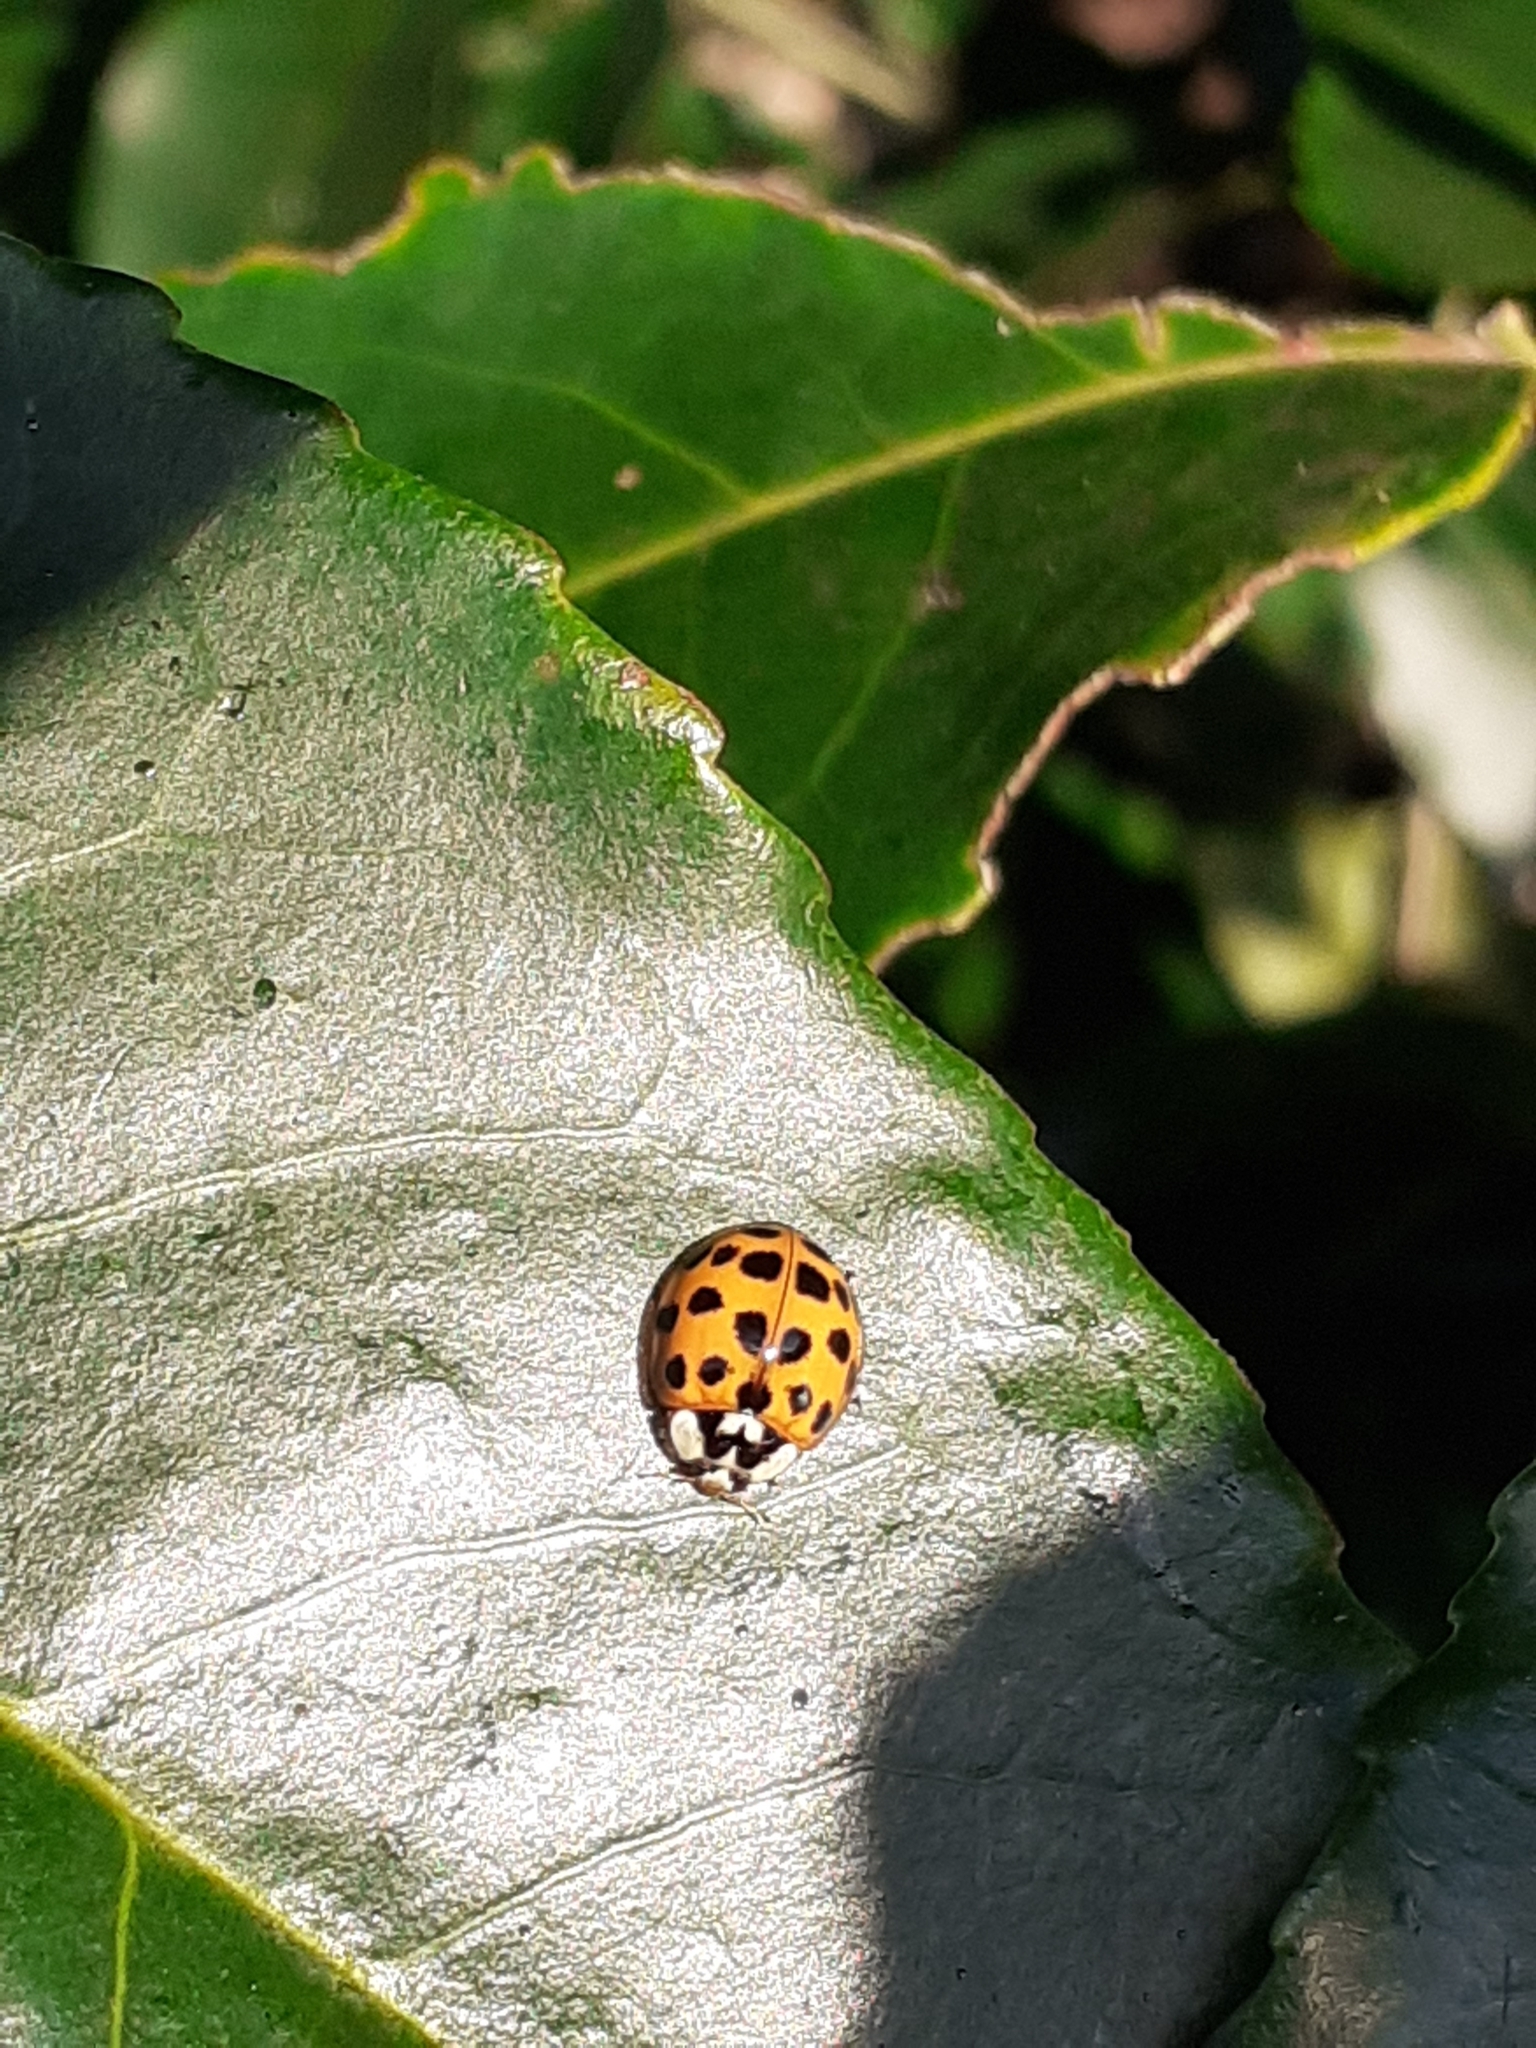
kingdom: Animalia
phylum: Arthropoda
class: Insecta
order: Coleoptera
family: Coccinellidae
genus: Harmonia
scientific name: Harmonia axyridis
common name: Harlequin ladybird
